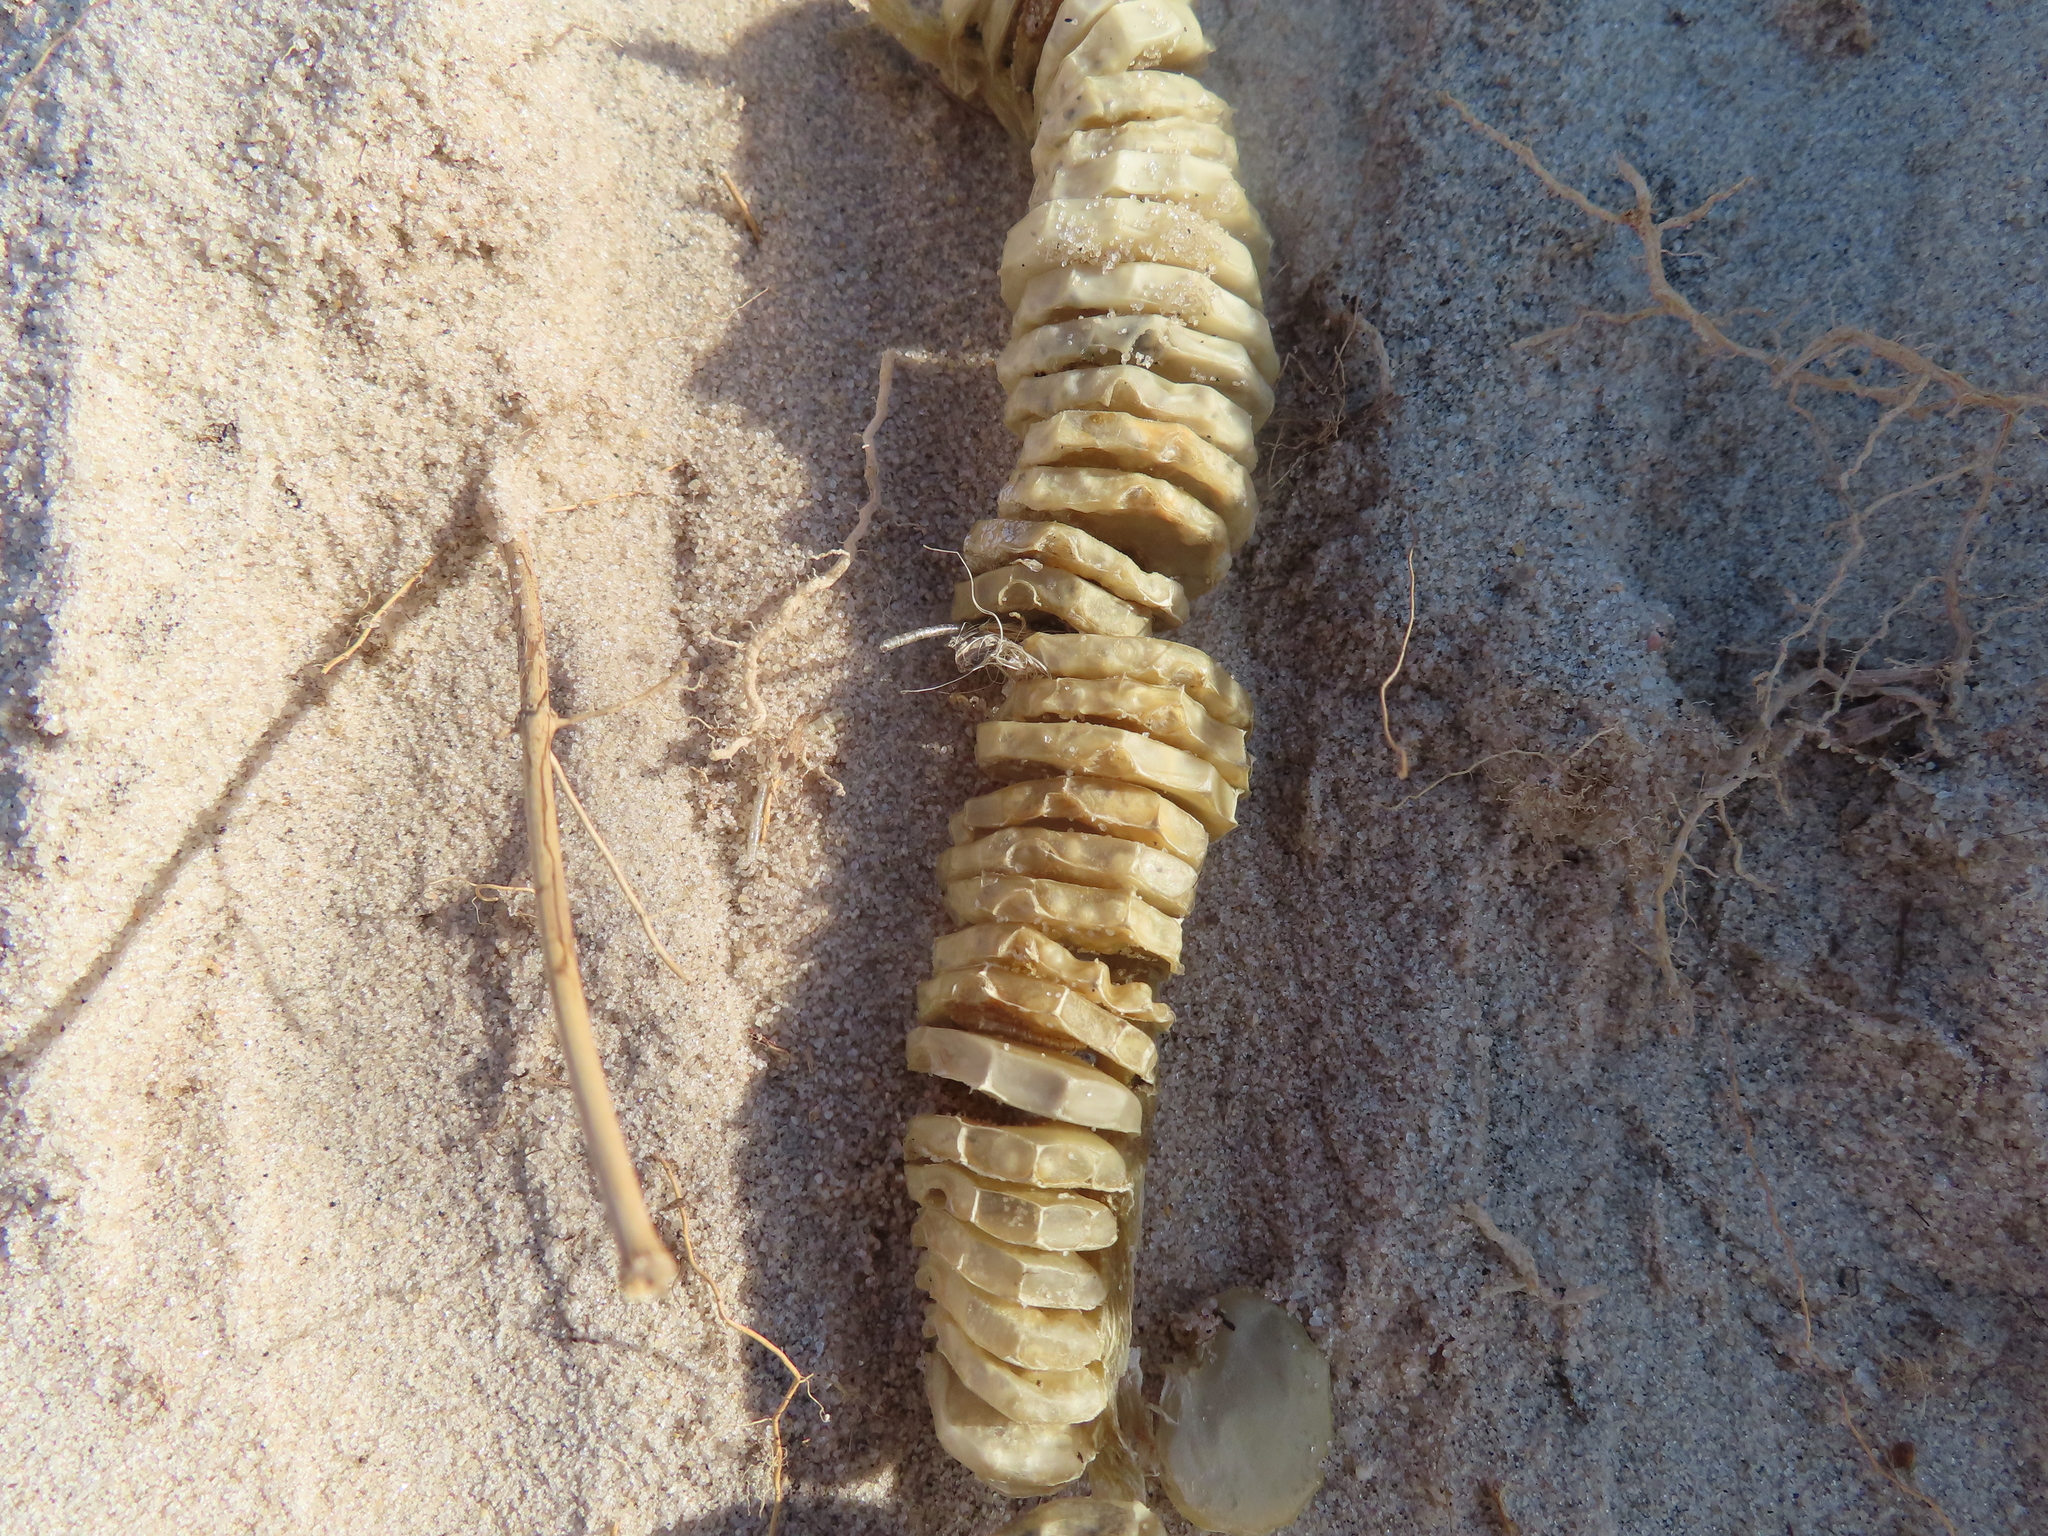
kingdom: Animalia
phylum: Mollusca
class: Gastropoda
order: Neogastropoda
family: Busyconidae
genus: Busycon
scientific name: Busycon carica
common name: Knobbed whelk
